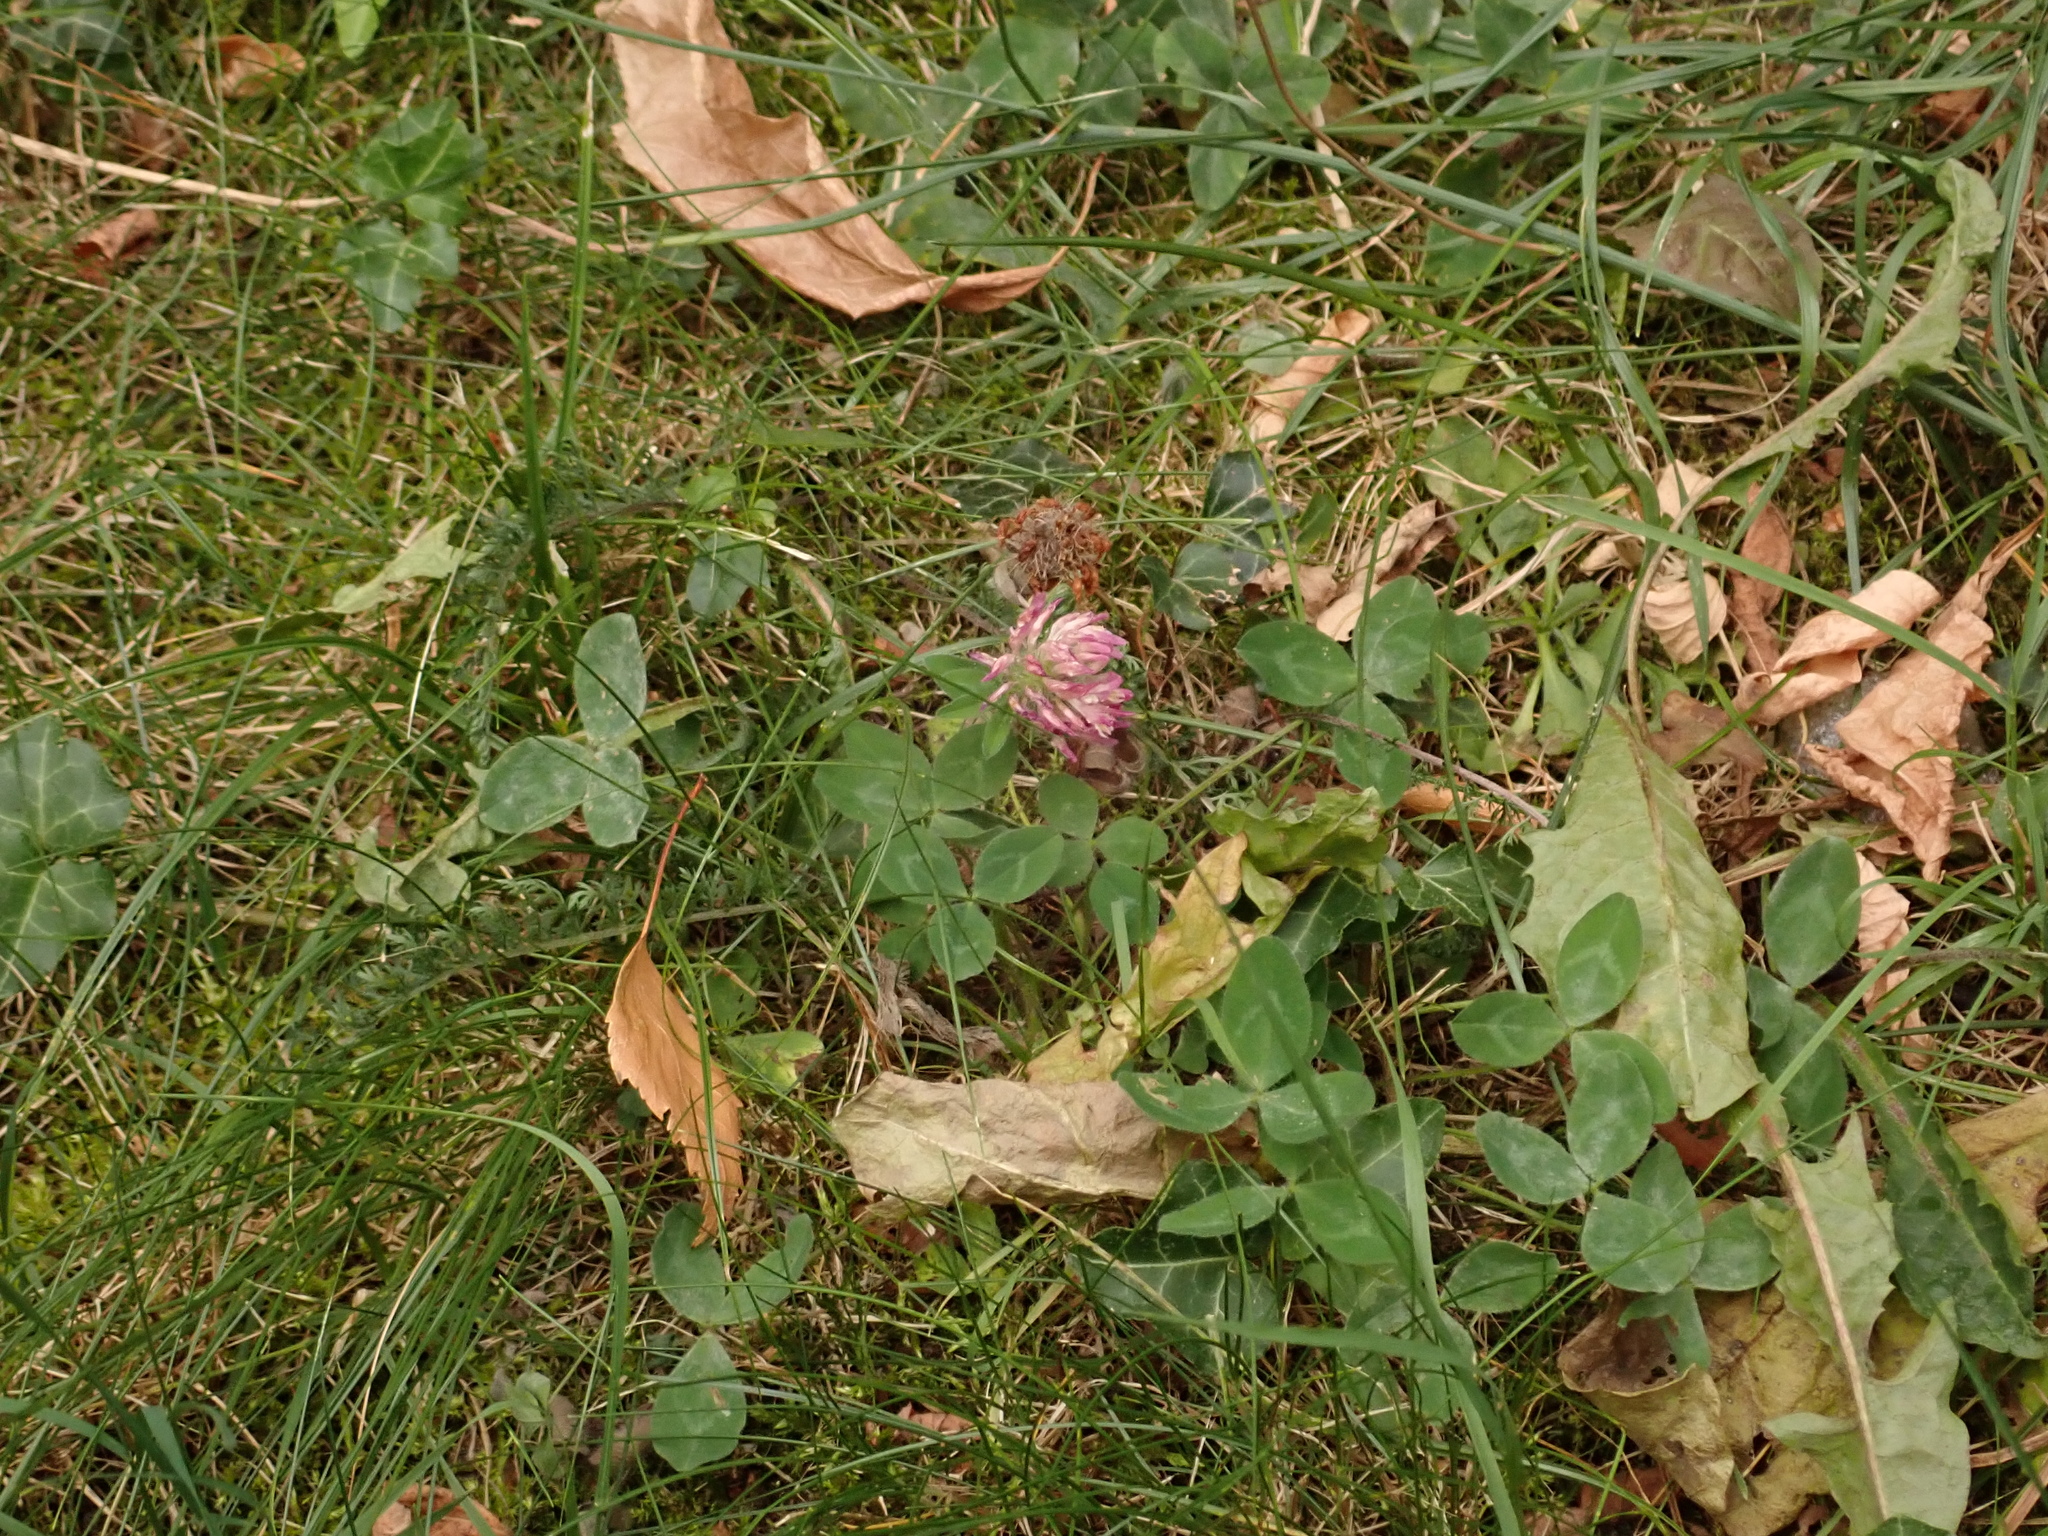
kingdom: Plantae
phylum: Tracheophyta
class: Magnoliopsida
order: Fabales
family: Fabaceae
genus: Trifolium
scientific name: Trifolium pratense
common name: Red clover
